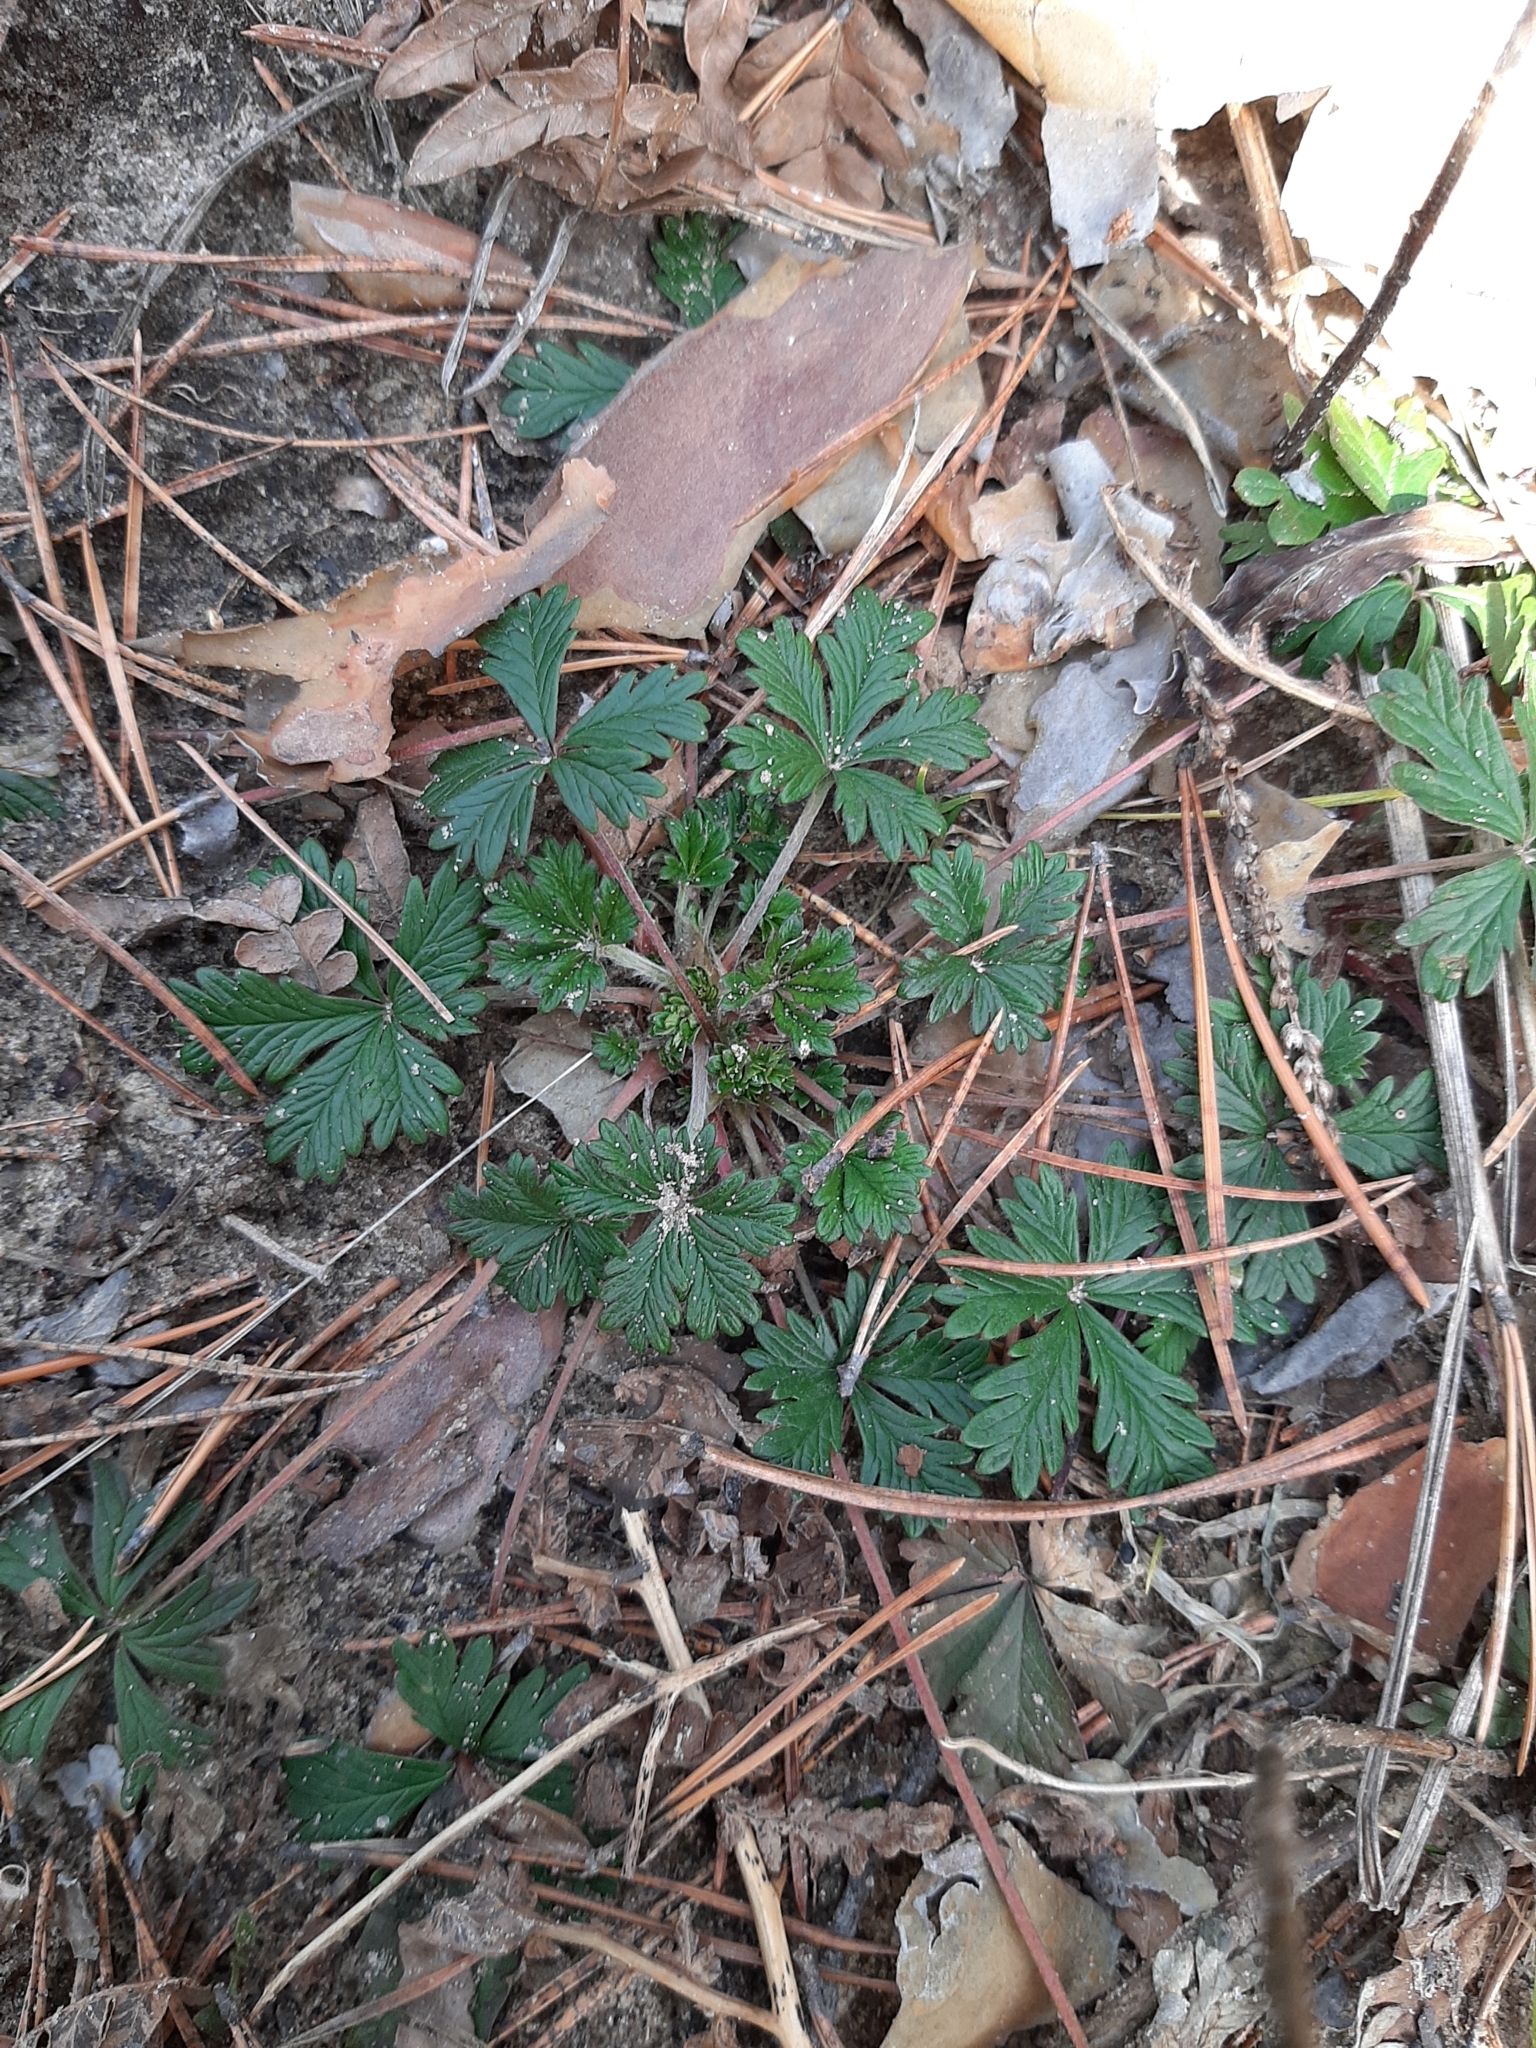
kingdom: Plantae
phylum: Tracheophyta
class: Magnoliopsida
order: Rosales
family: Rosaceae
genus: Potentilla
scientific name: Potentilla argentea
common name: Hoary cinquefoil
